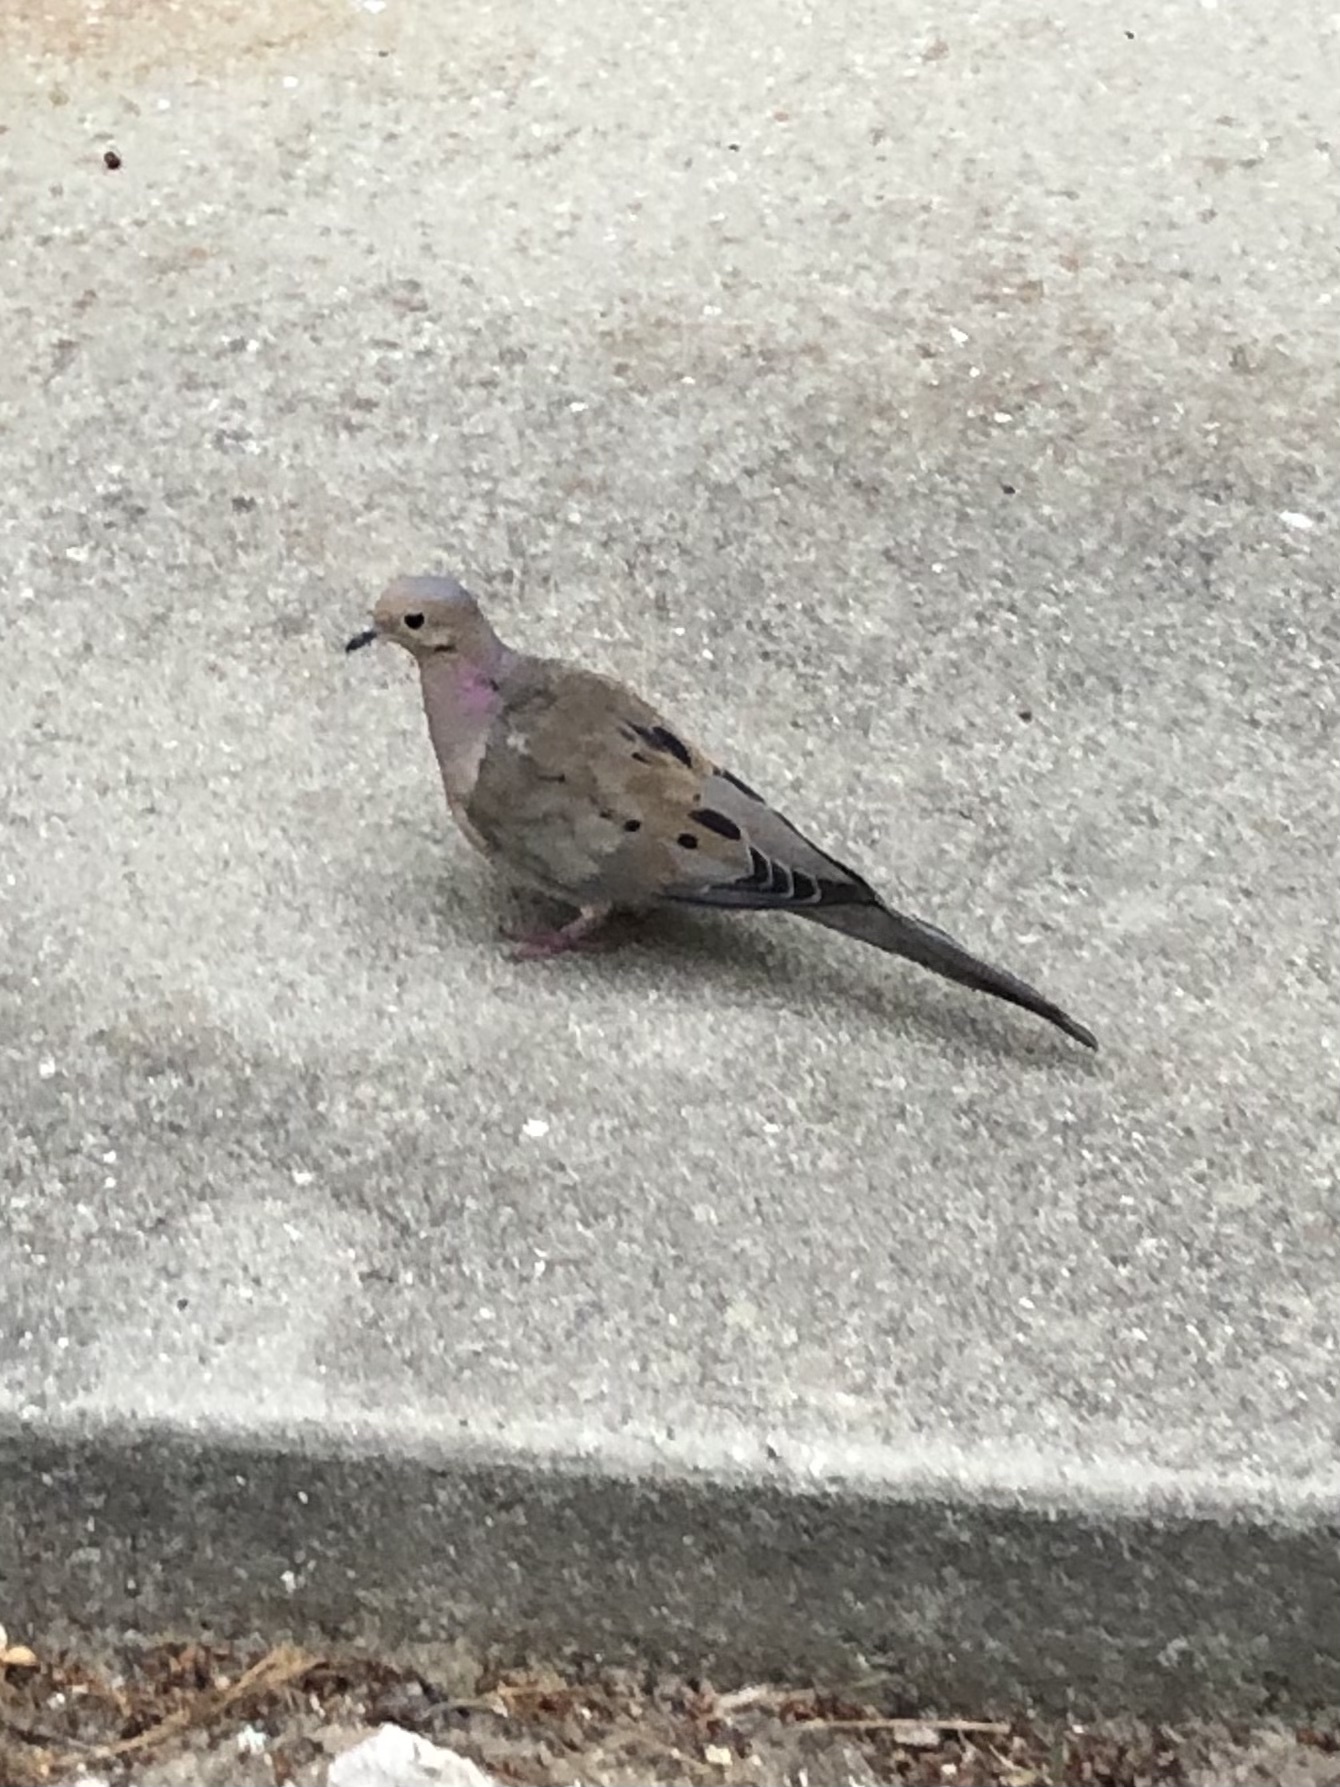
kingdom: Animalia
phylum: Chordata
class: Aves
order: Columbiformes
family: Columbidae
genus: Zenaida
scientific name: Zenaida macroura
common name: Mourning dove
